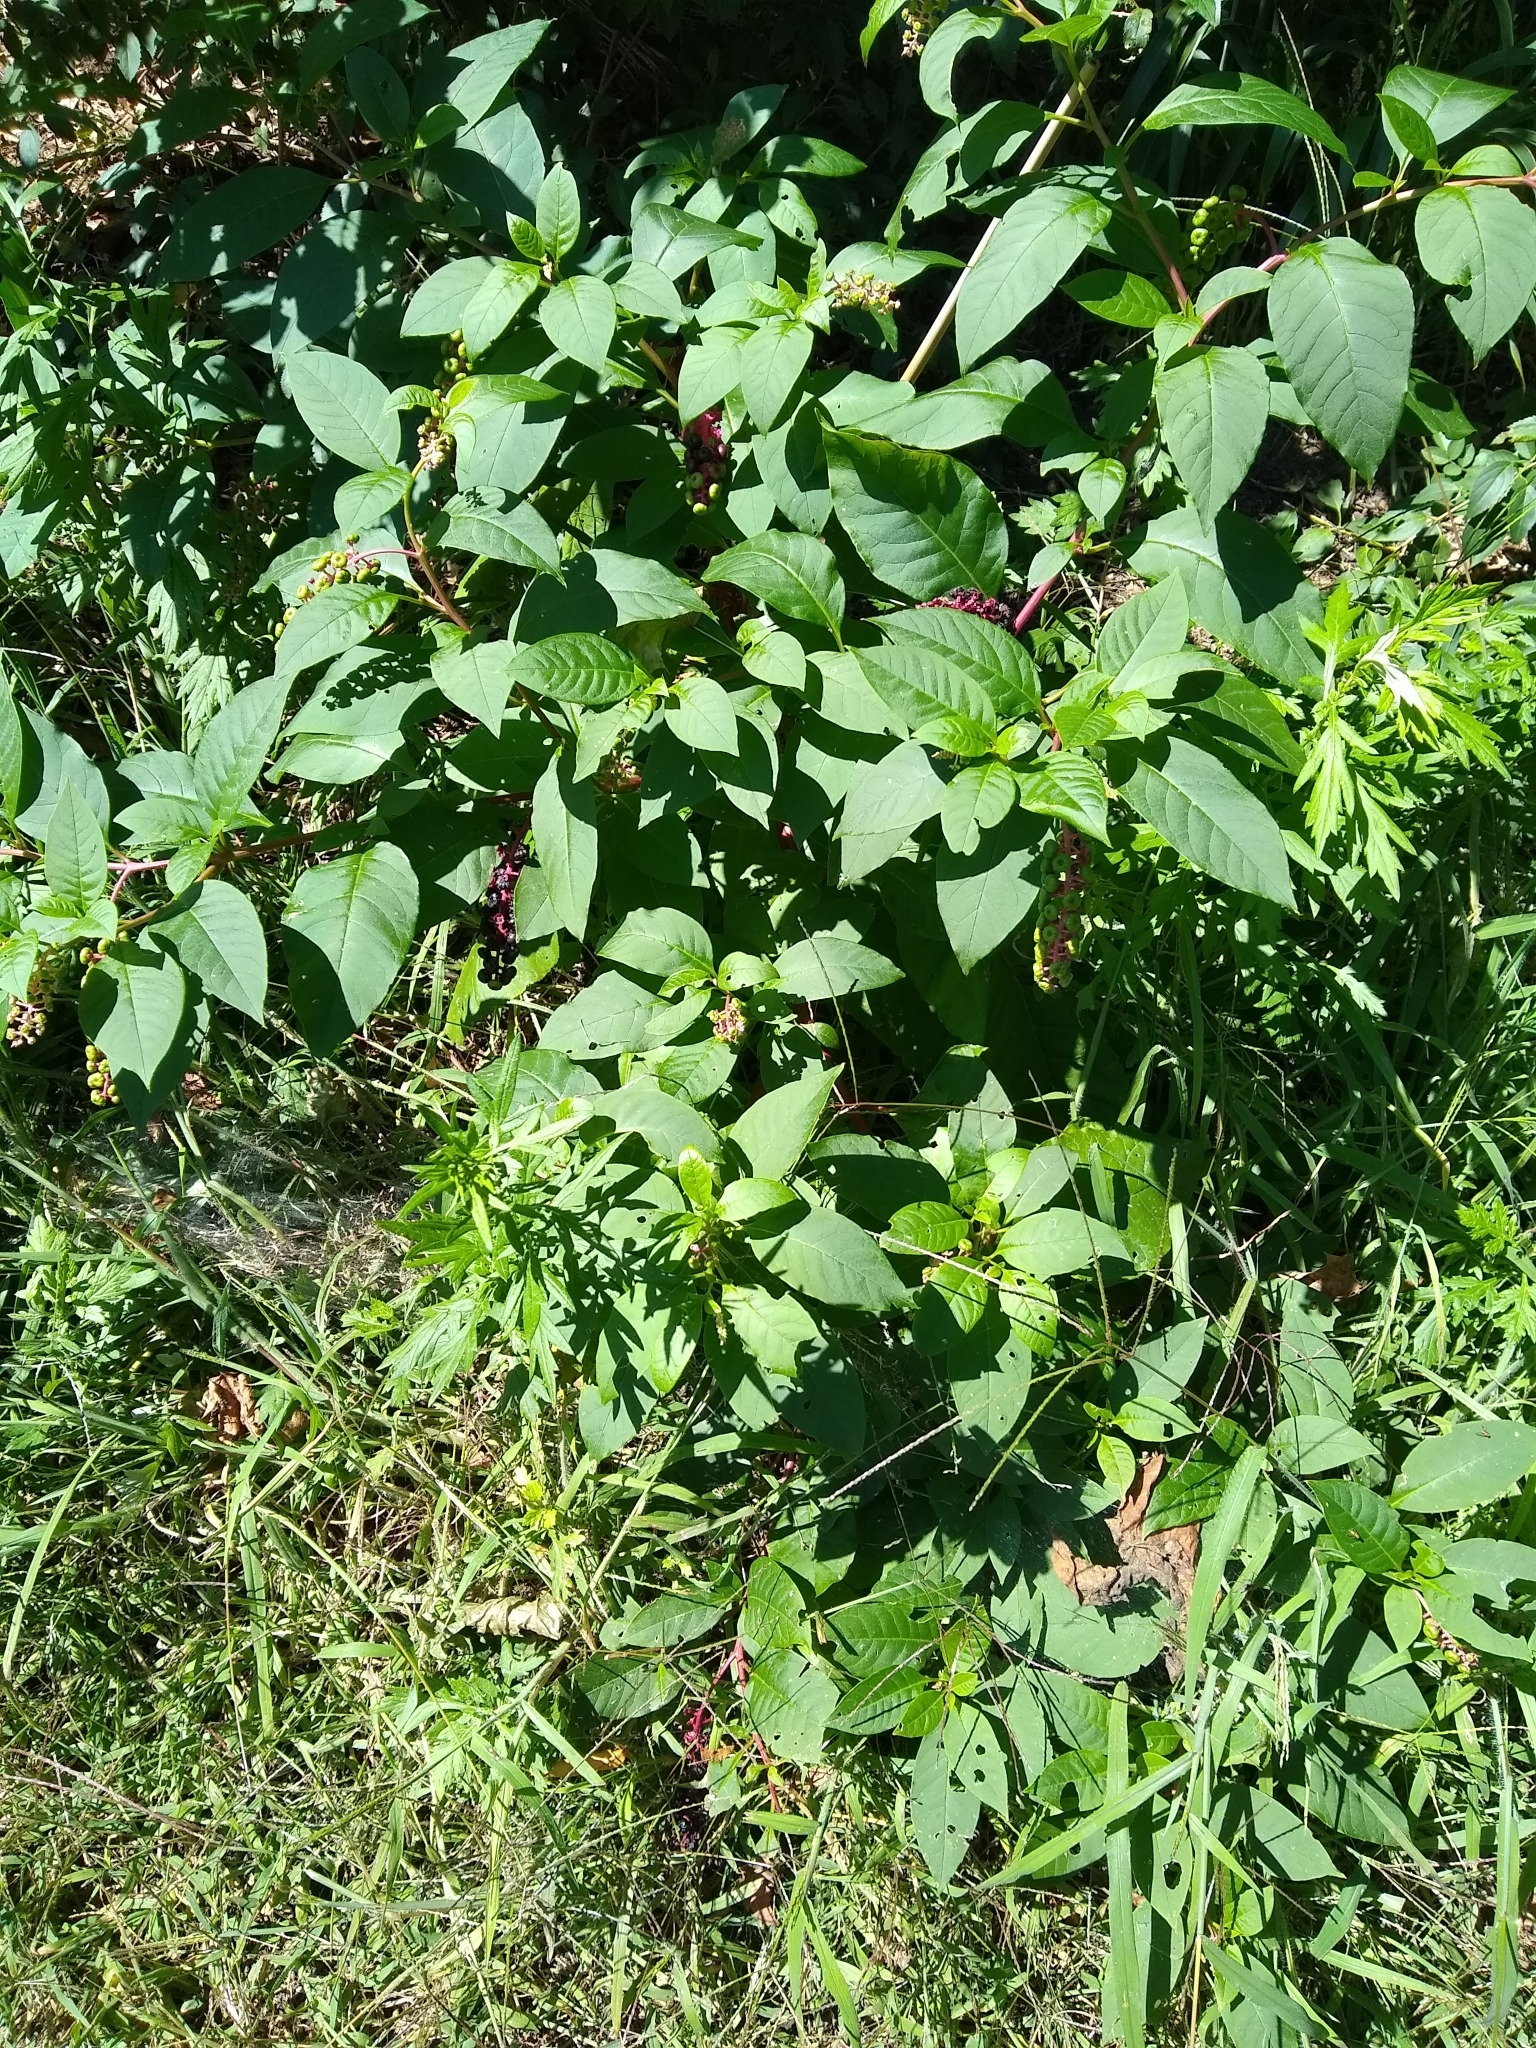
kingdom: Plantae
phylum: Tracheophyta
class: Magnoliopsida
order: Caryophyllales
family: Phytolaccaceae
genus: Phytolacca
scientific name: Phytolacca americana
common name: American pokeweed
